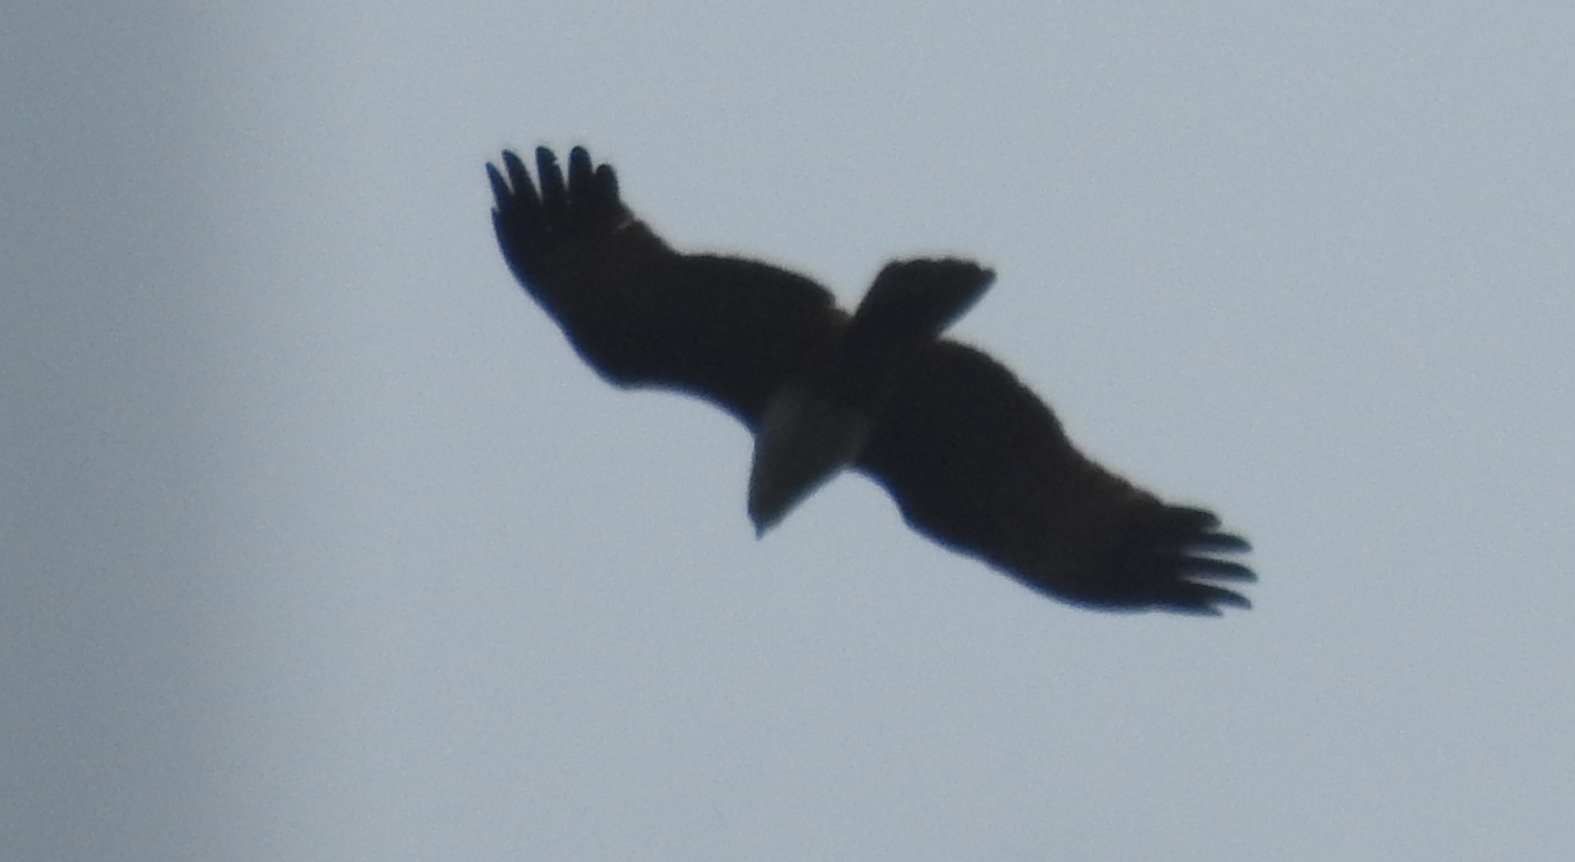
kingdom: Animalia
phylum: Chordata
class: Aves
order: Accipitriformes
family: Accipitridae
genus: Haliastur
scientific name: Haliastur indus
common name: Brahminy kite
